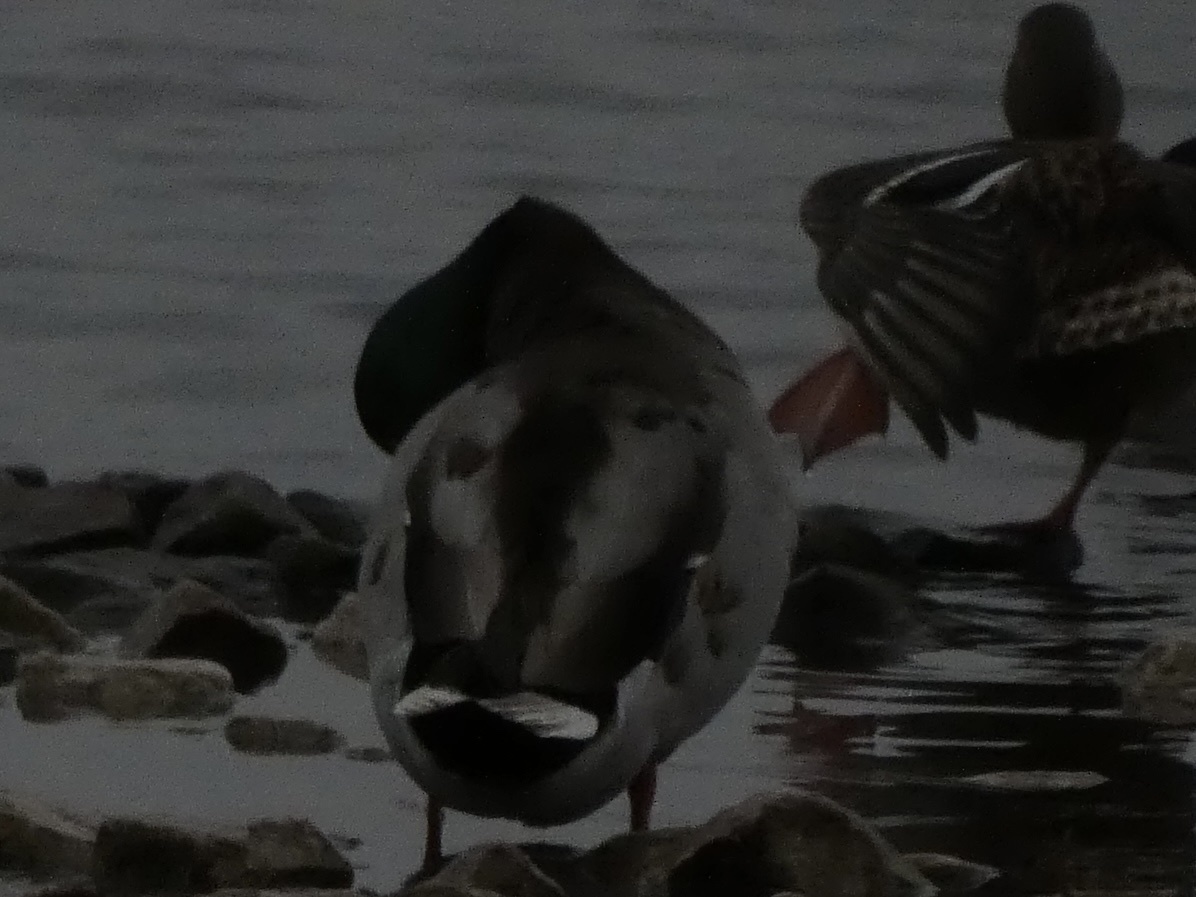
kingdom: Animalia
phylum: Chordata
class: Aves
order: Anseriformes
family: Anatidae
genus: Anas
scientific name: Anas platyrhynchos
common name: Mallard
